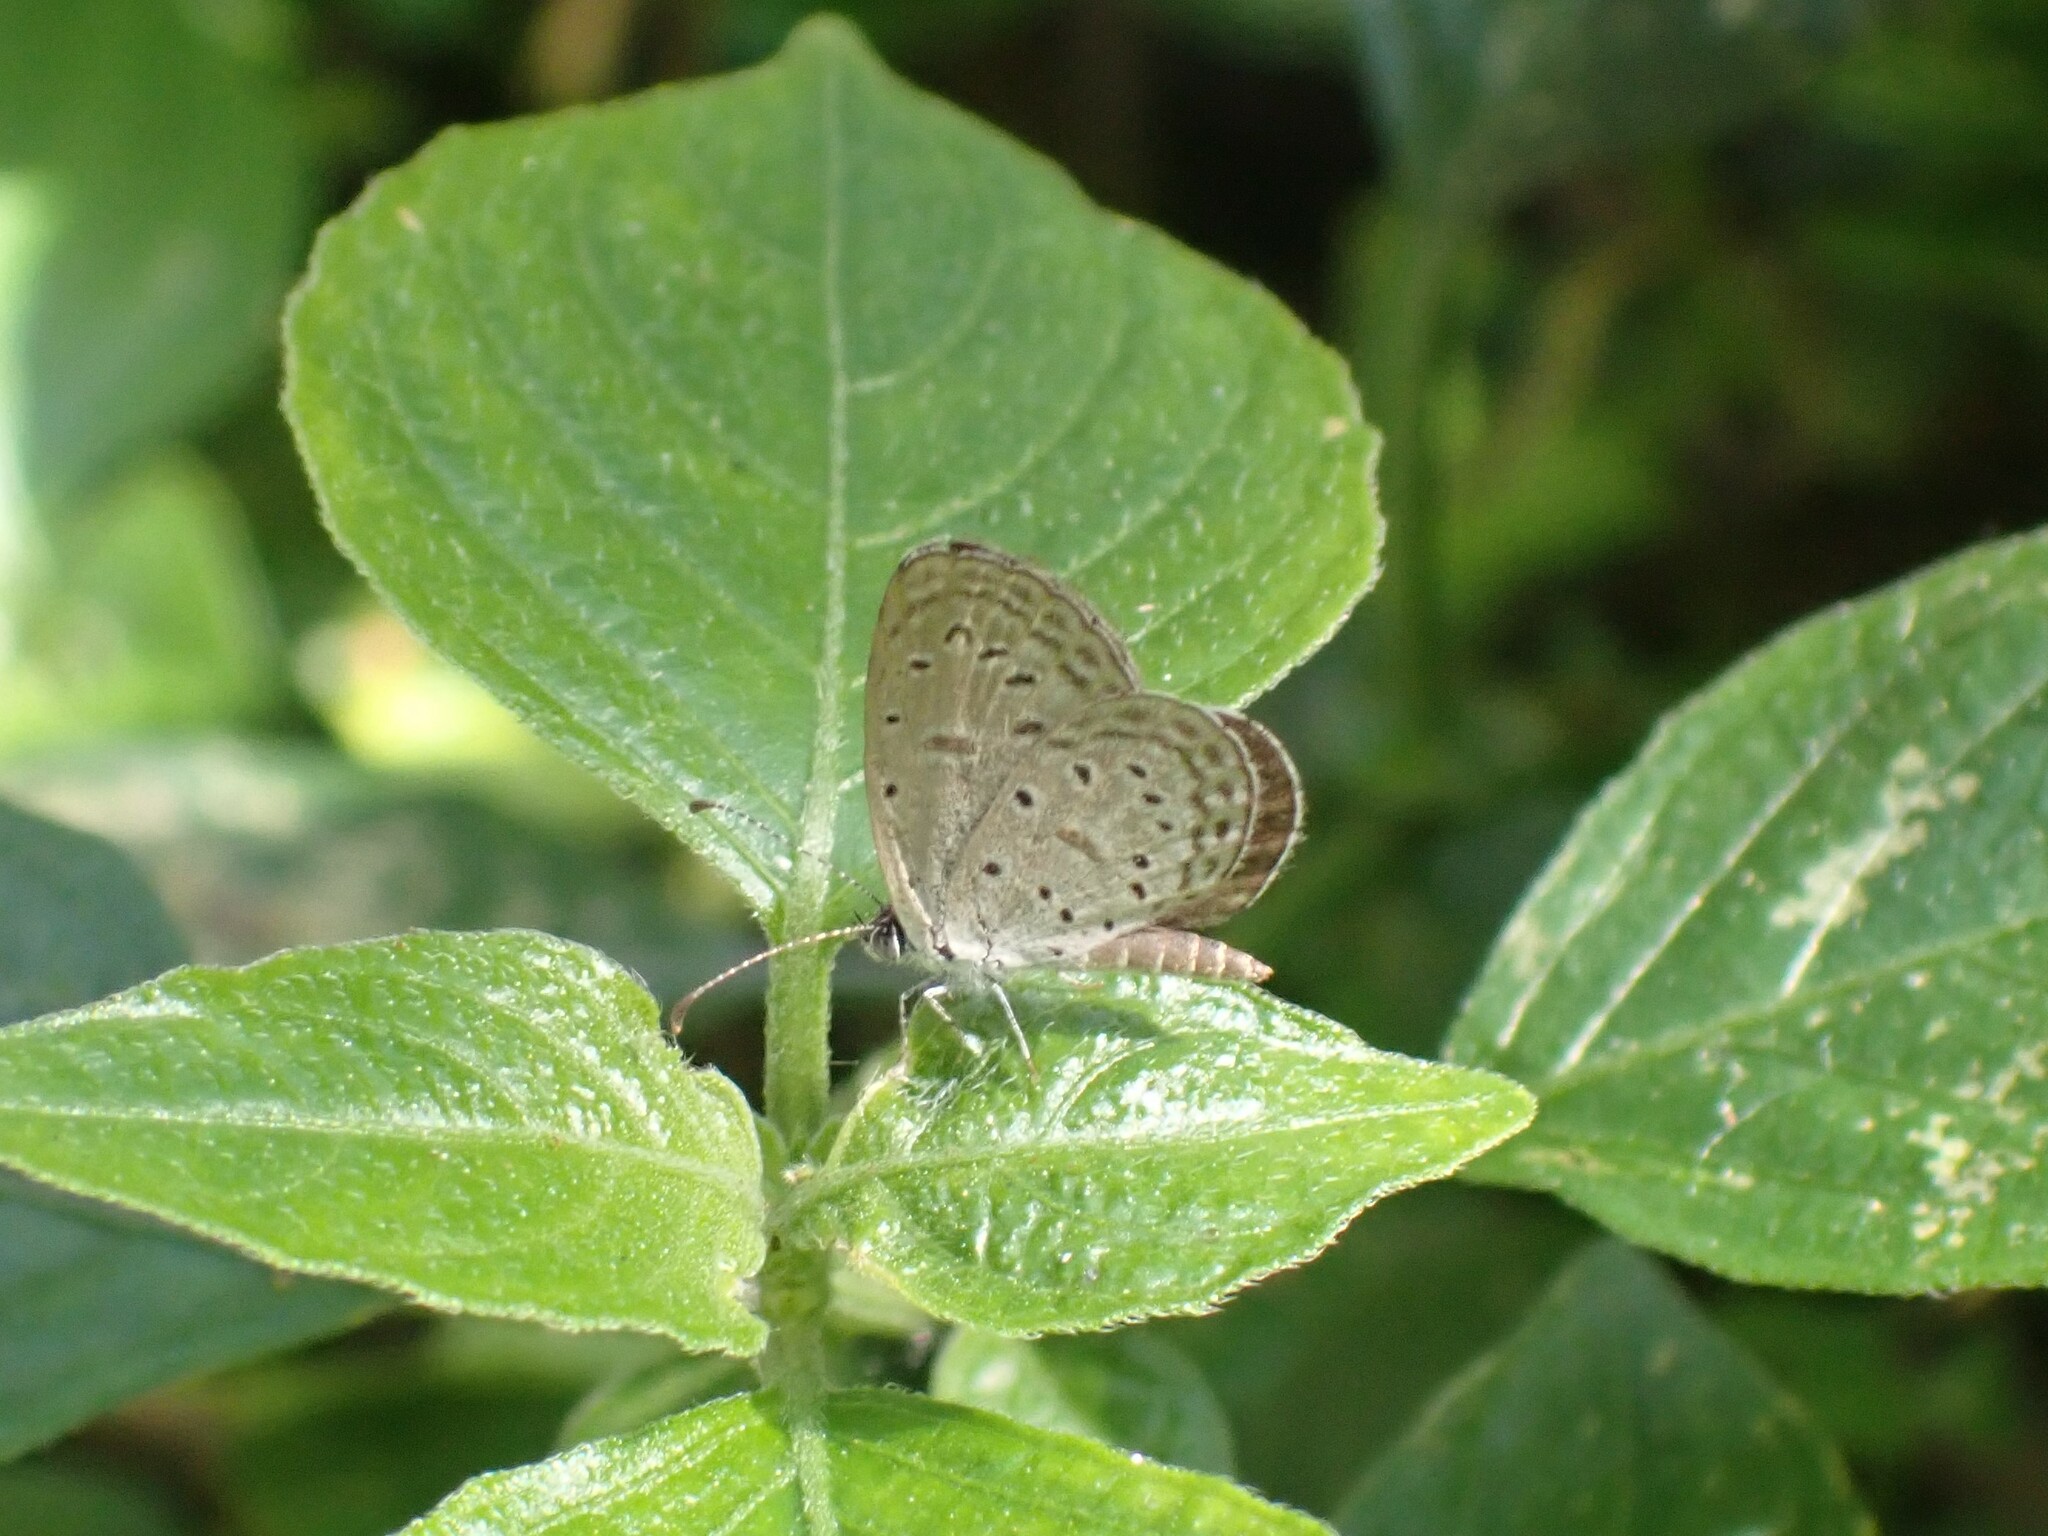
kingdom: Animalia
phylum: Arthropoda
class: Insecta
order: Lepidoptera
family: Lycaenidae
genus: Zizula
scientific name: Zizula hylax
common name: Gaika blue
